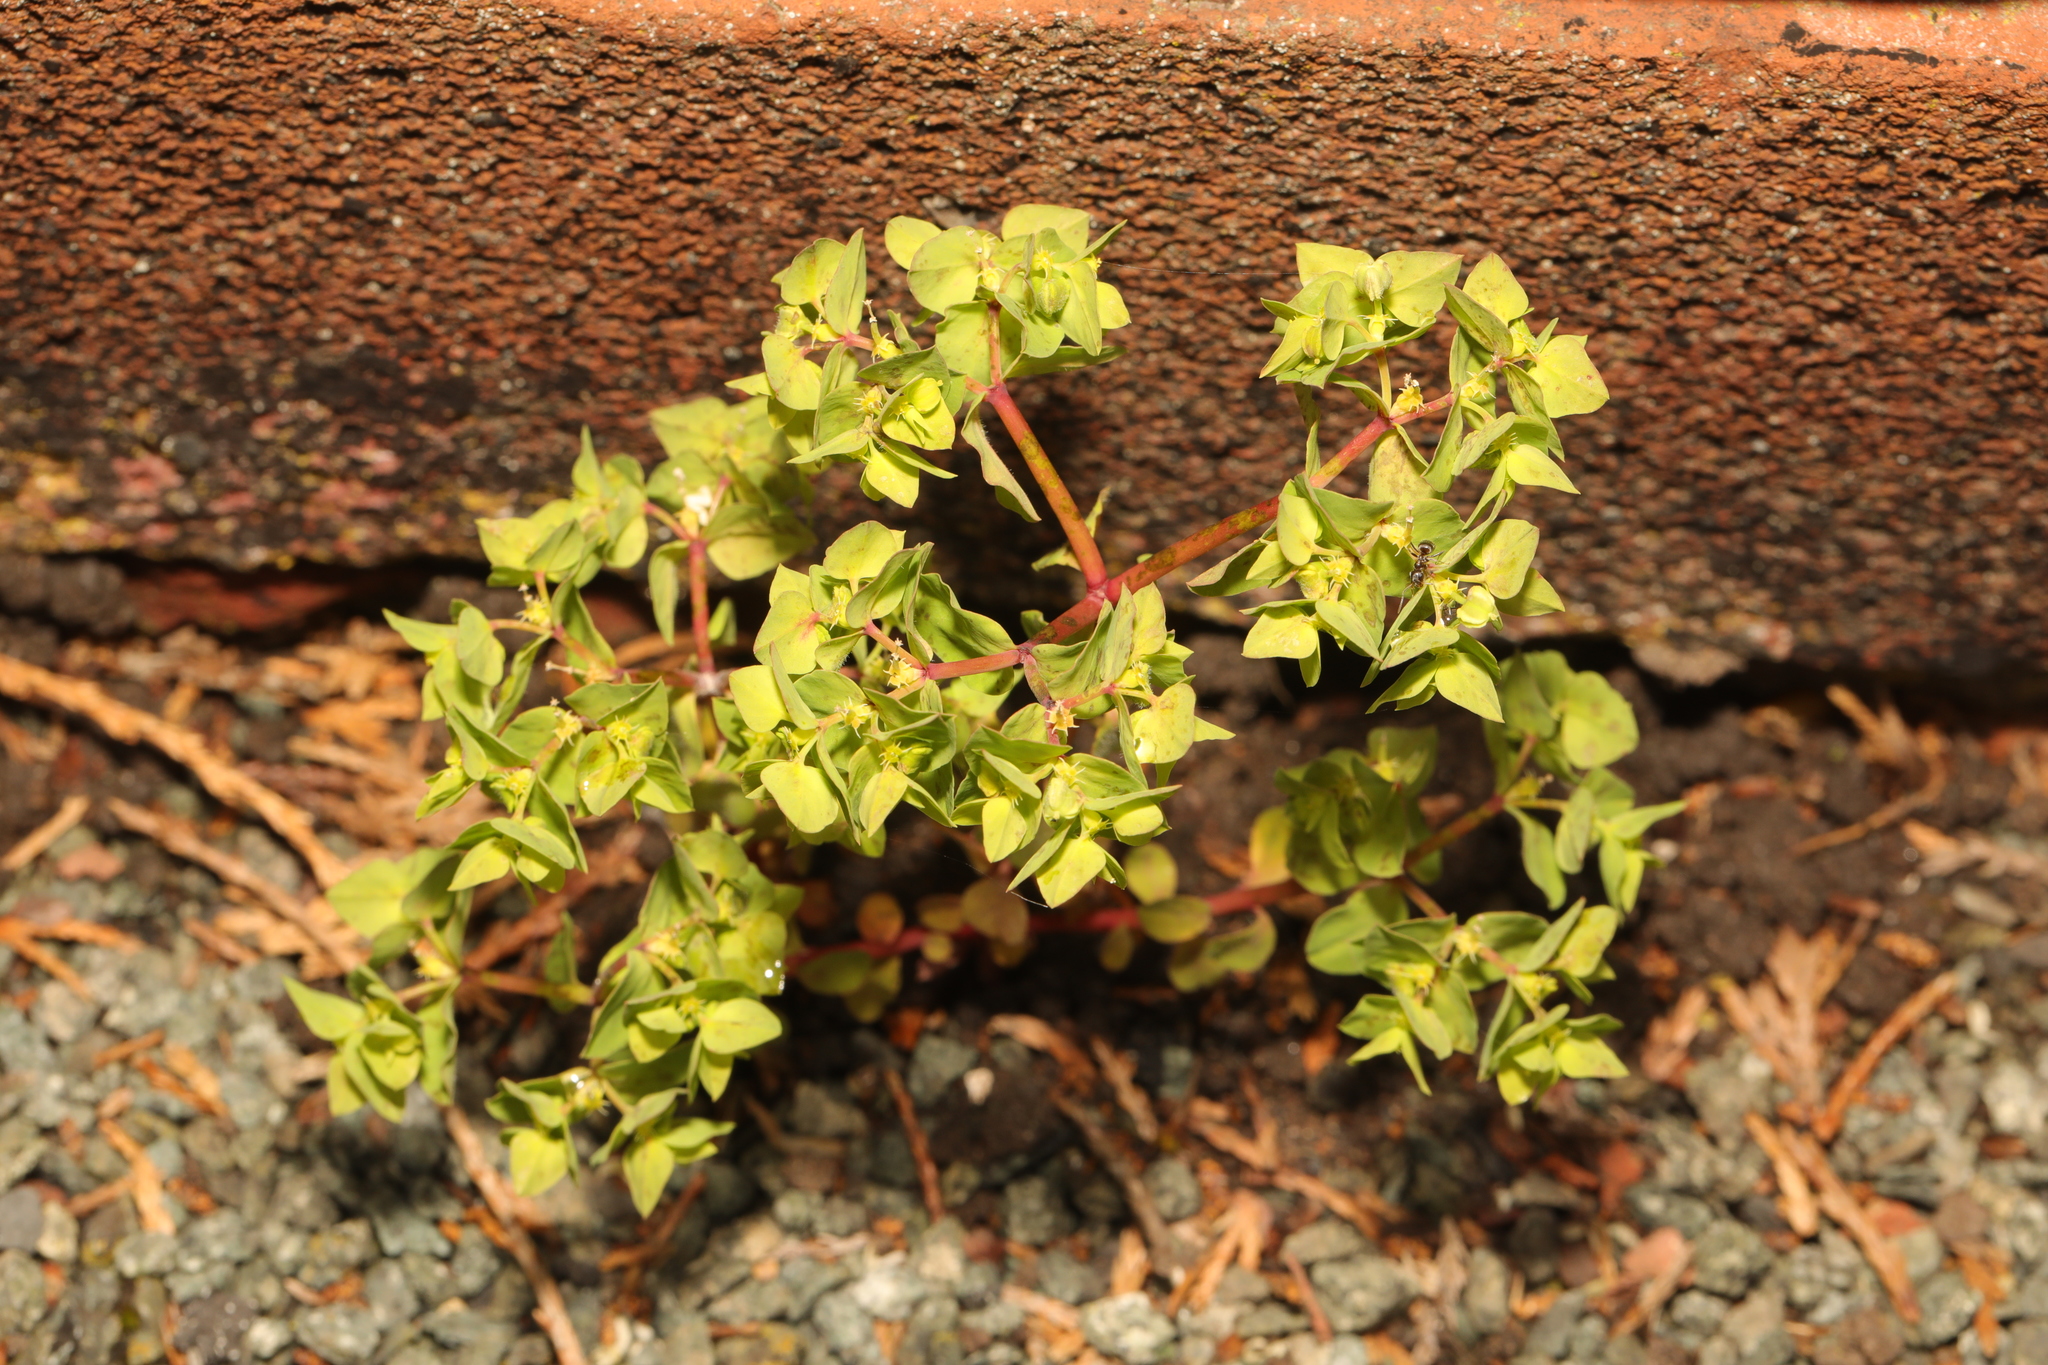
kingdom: Plantae
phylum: Tracheophyta
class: Magnoliopsida
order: Malpighiales
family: Euphorbiaceae
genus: Euphorbia
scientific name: Euphorbia peplus
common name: Petty spurge
